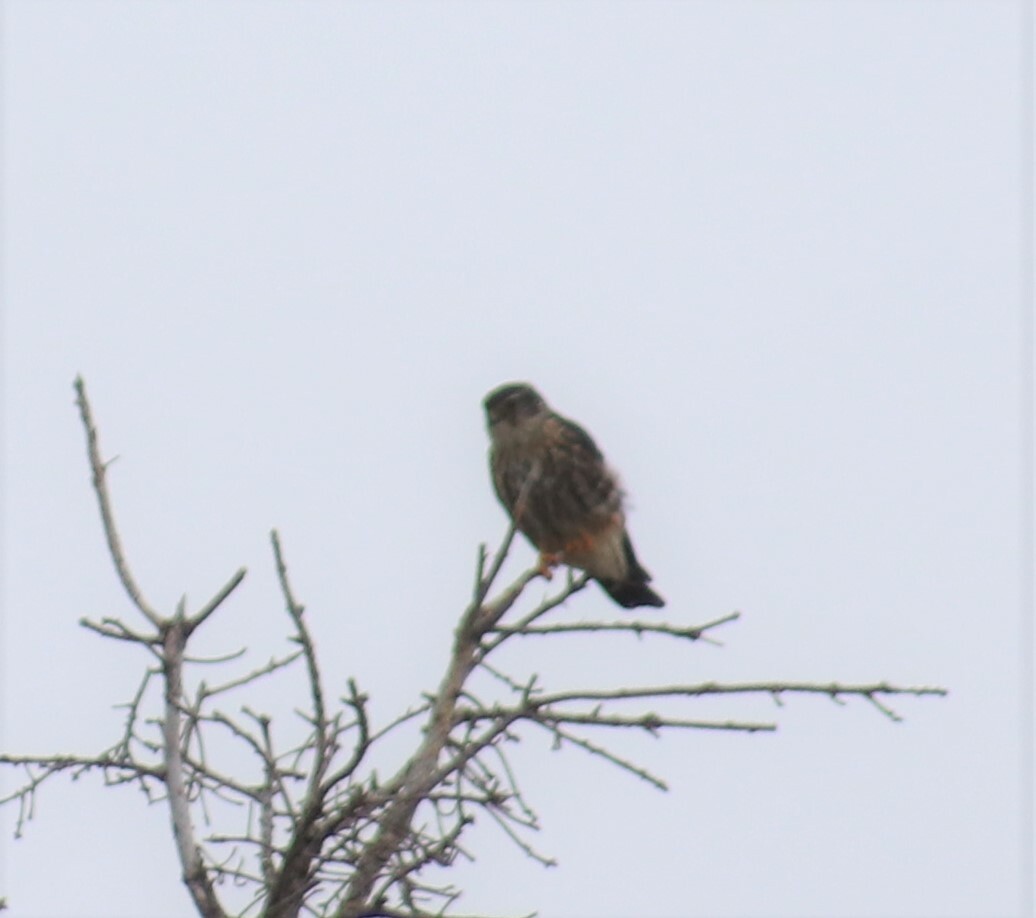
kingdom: Animalia
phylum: Chordata
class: Aves
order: Falconiformes
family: Falconidae
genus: Falco
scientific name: Falco columbarius
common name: Merlin
